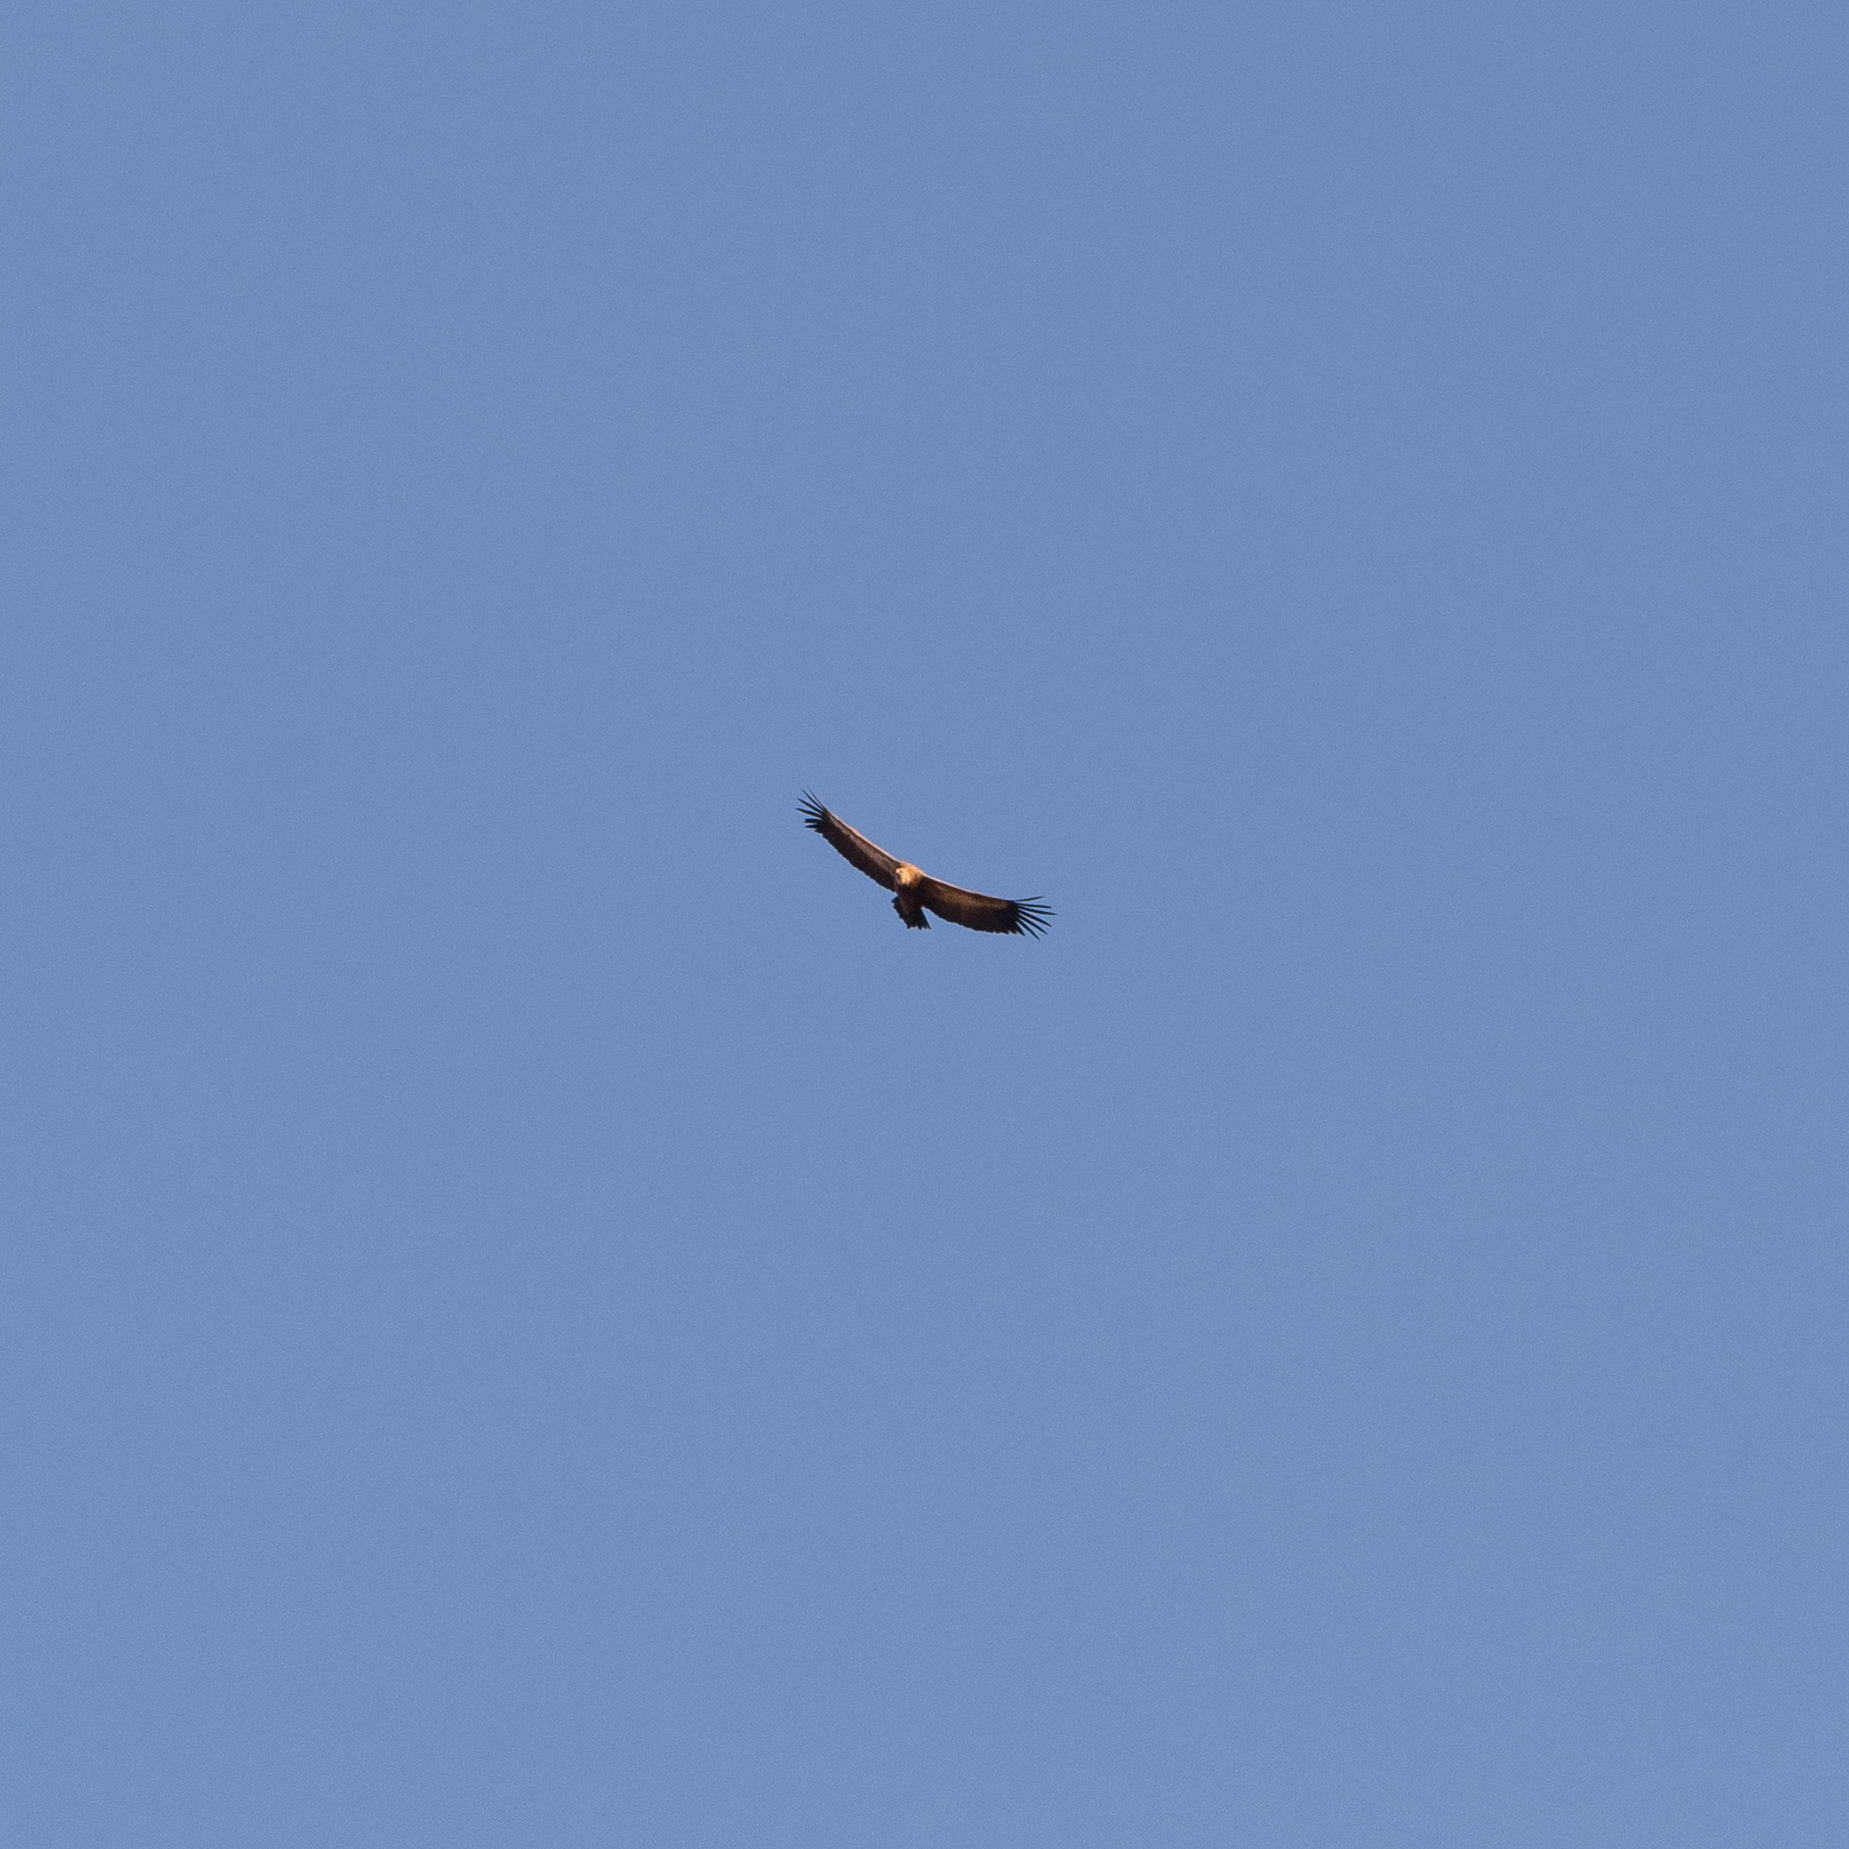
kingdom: Animalia
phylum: Chordata
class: Aves
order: Accipitriformes
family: Accipitridae
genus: Gyps
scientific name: Gyps fulvus
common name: Griffon vulture
